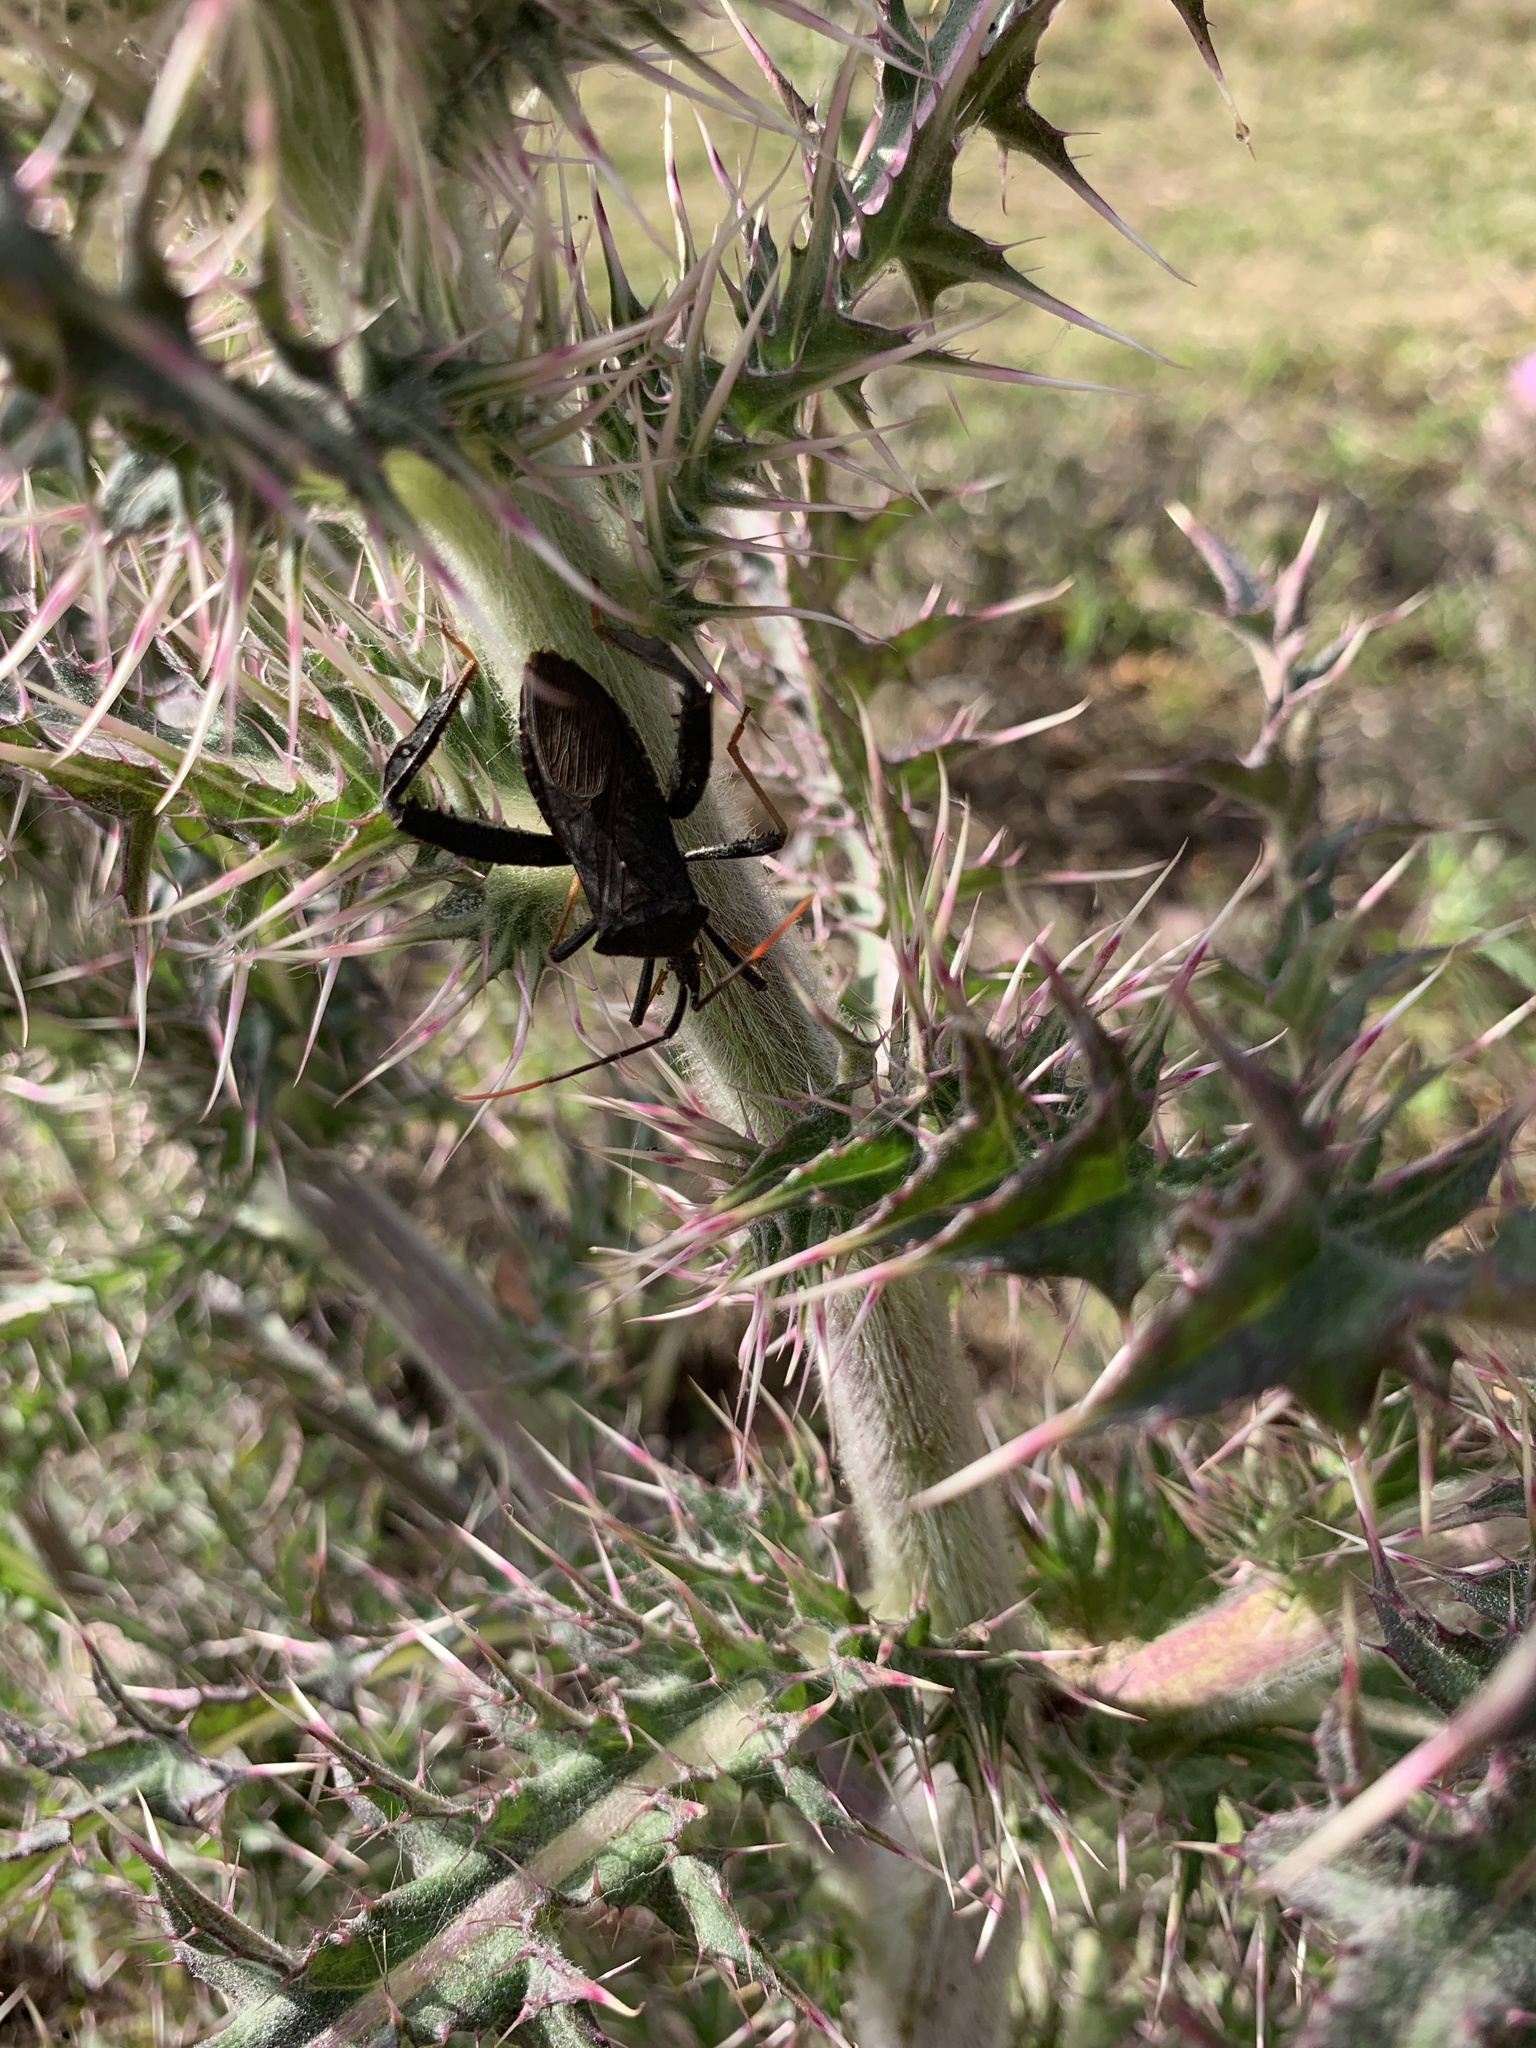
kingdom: Animalia
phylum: Arthropoda
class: Insecta
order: Hemiptera
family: Coreidae
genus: Acanthocephala
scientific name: Acanthocephala terminalis
